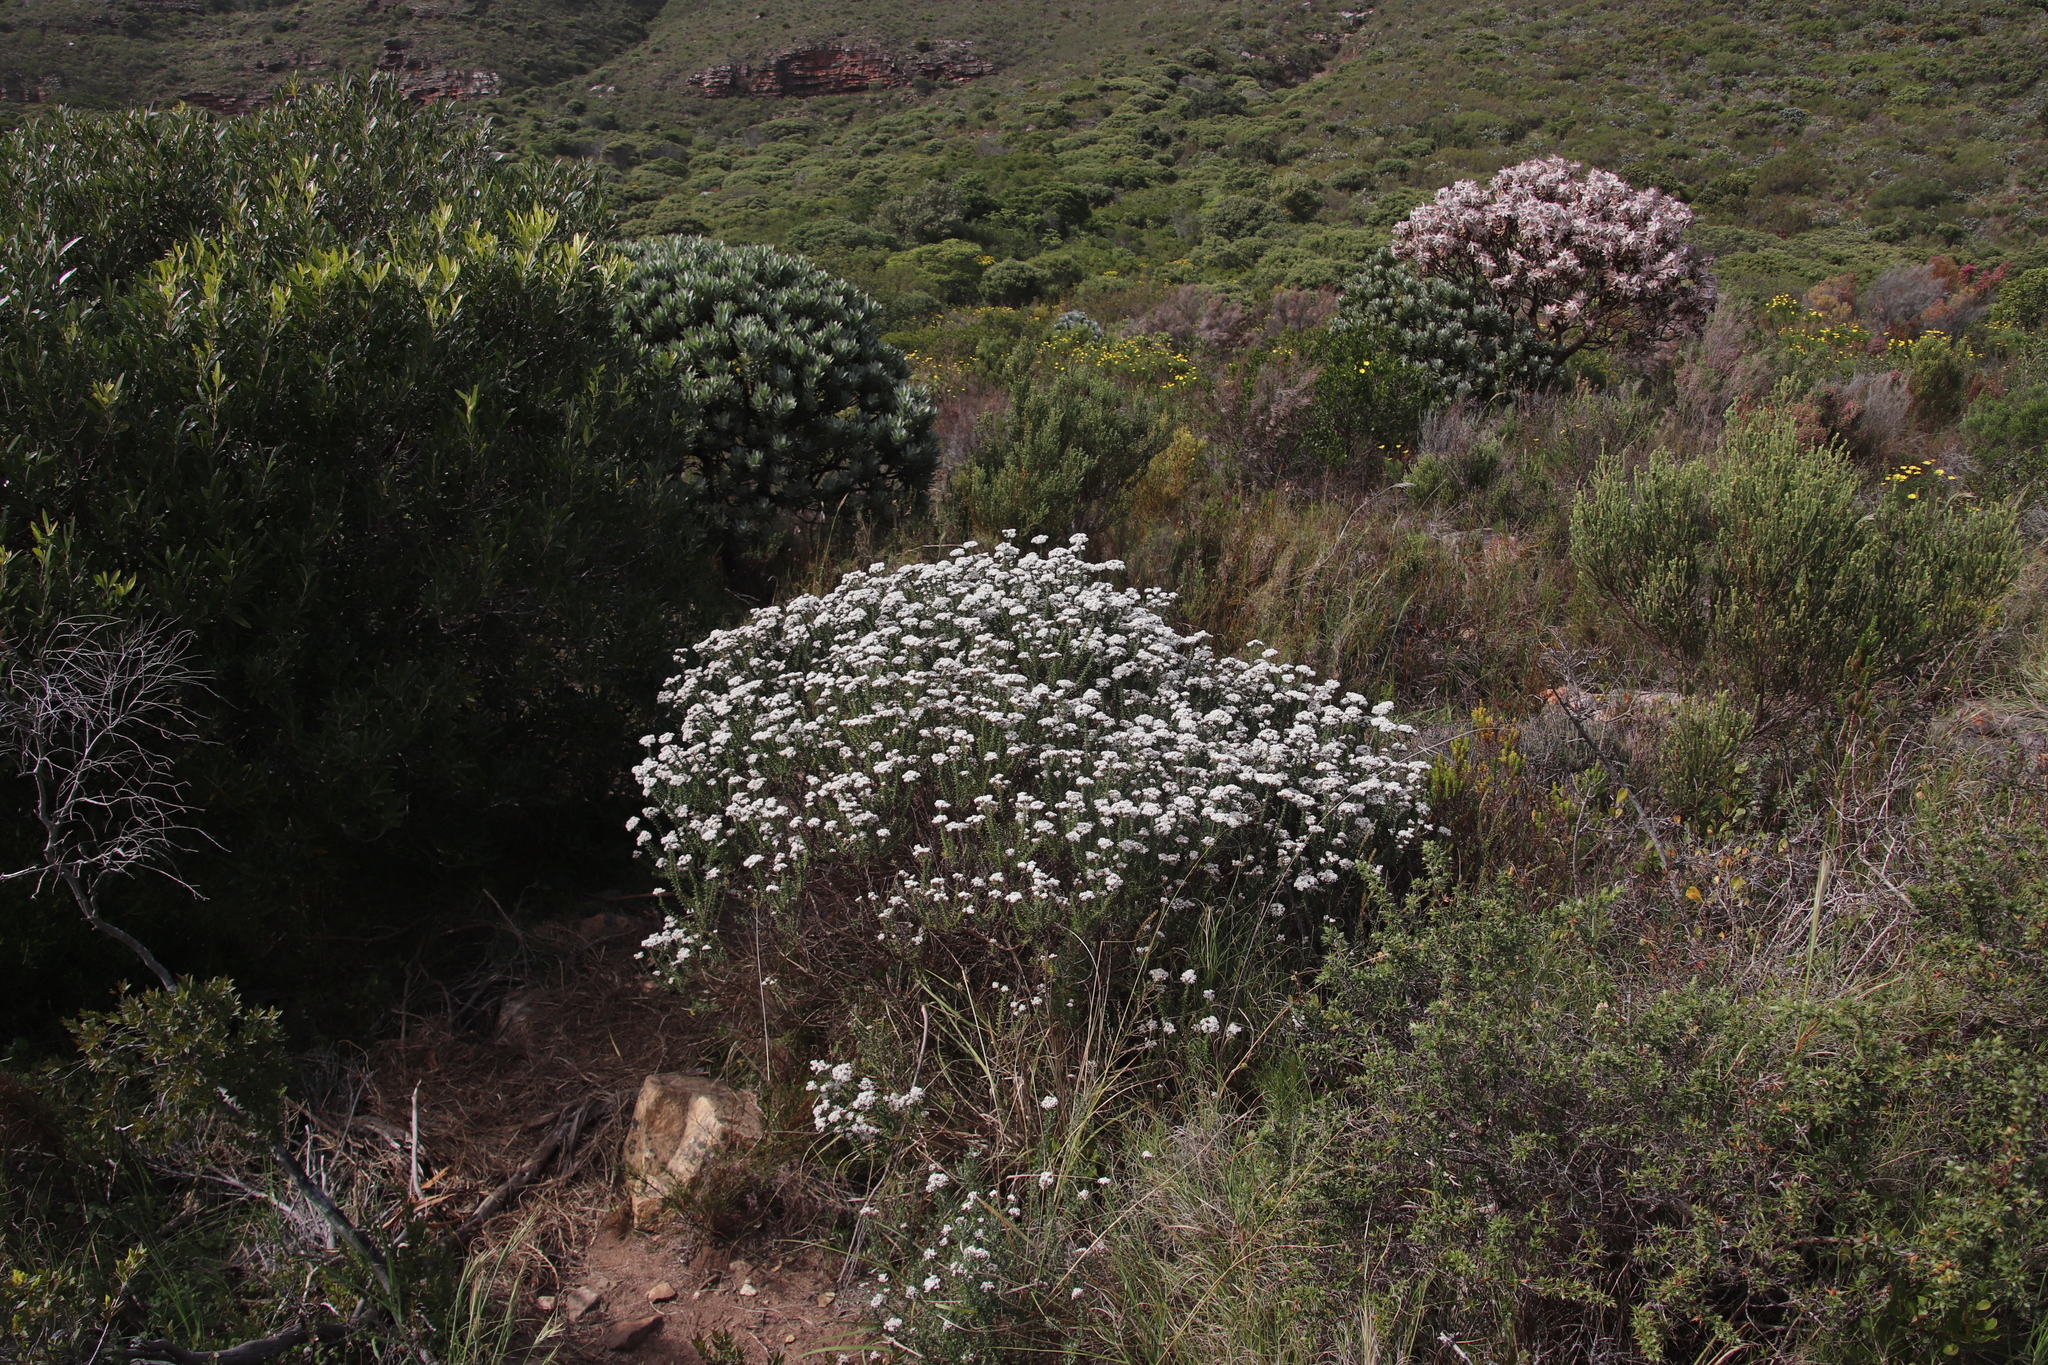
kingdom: Plantae
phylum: Tracheophyta
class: Magnoliopsida
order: Asterales
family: Asteraceae
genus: Metalasia
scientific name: Metalasia densa
